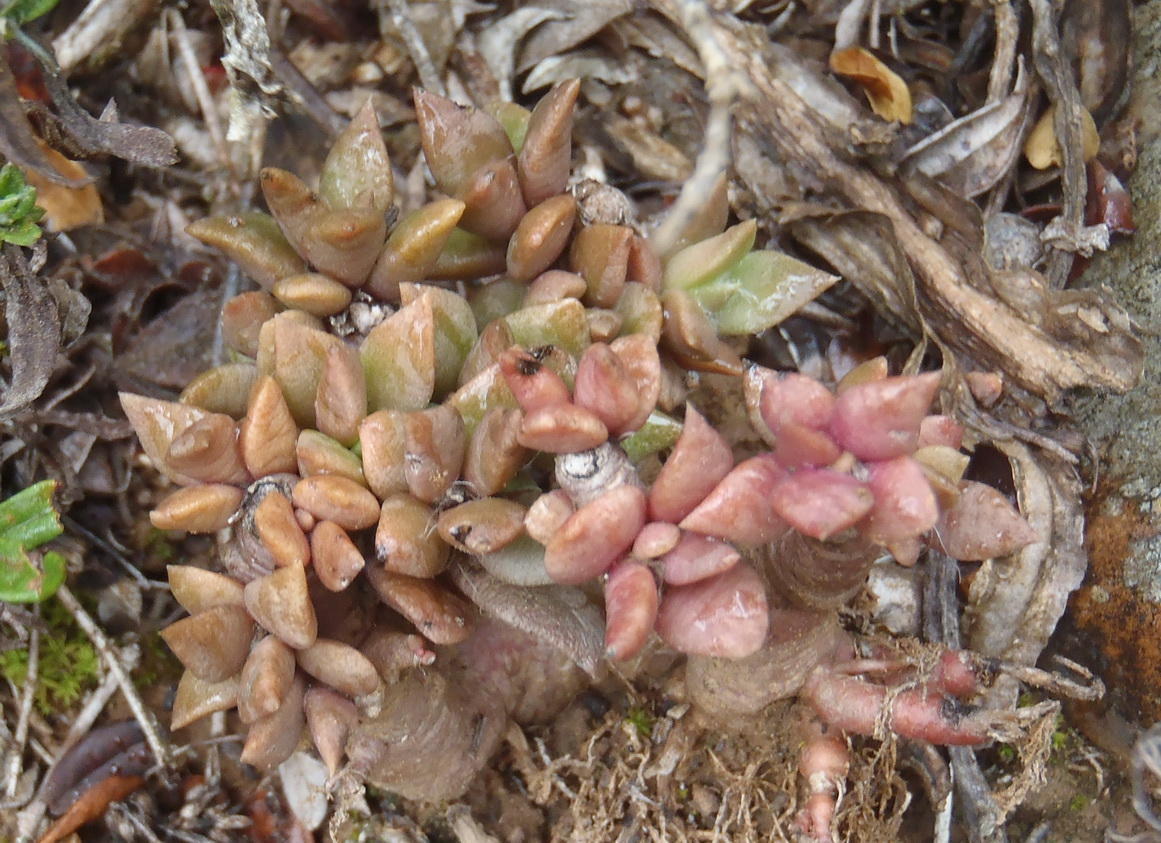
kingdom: Plantae
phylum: Tracheophyta
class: Magnoliopsida
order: Caryophyllales
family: Anacampserotaceae
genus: Anacampseros
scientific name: Anacampseros rufescens
